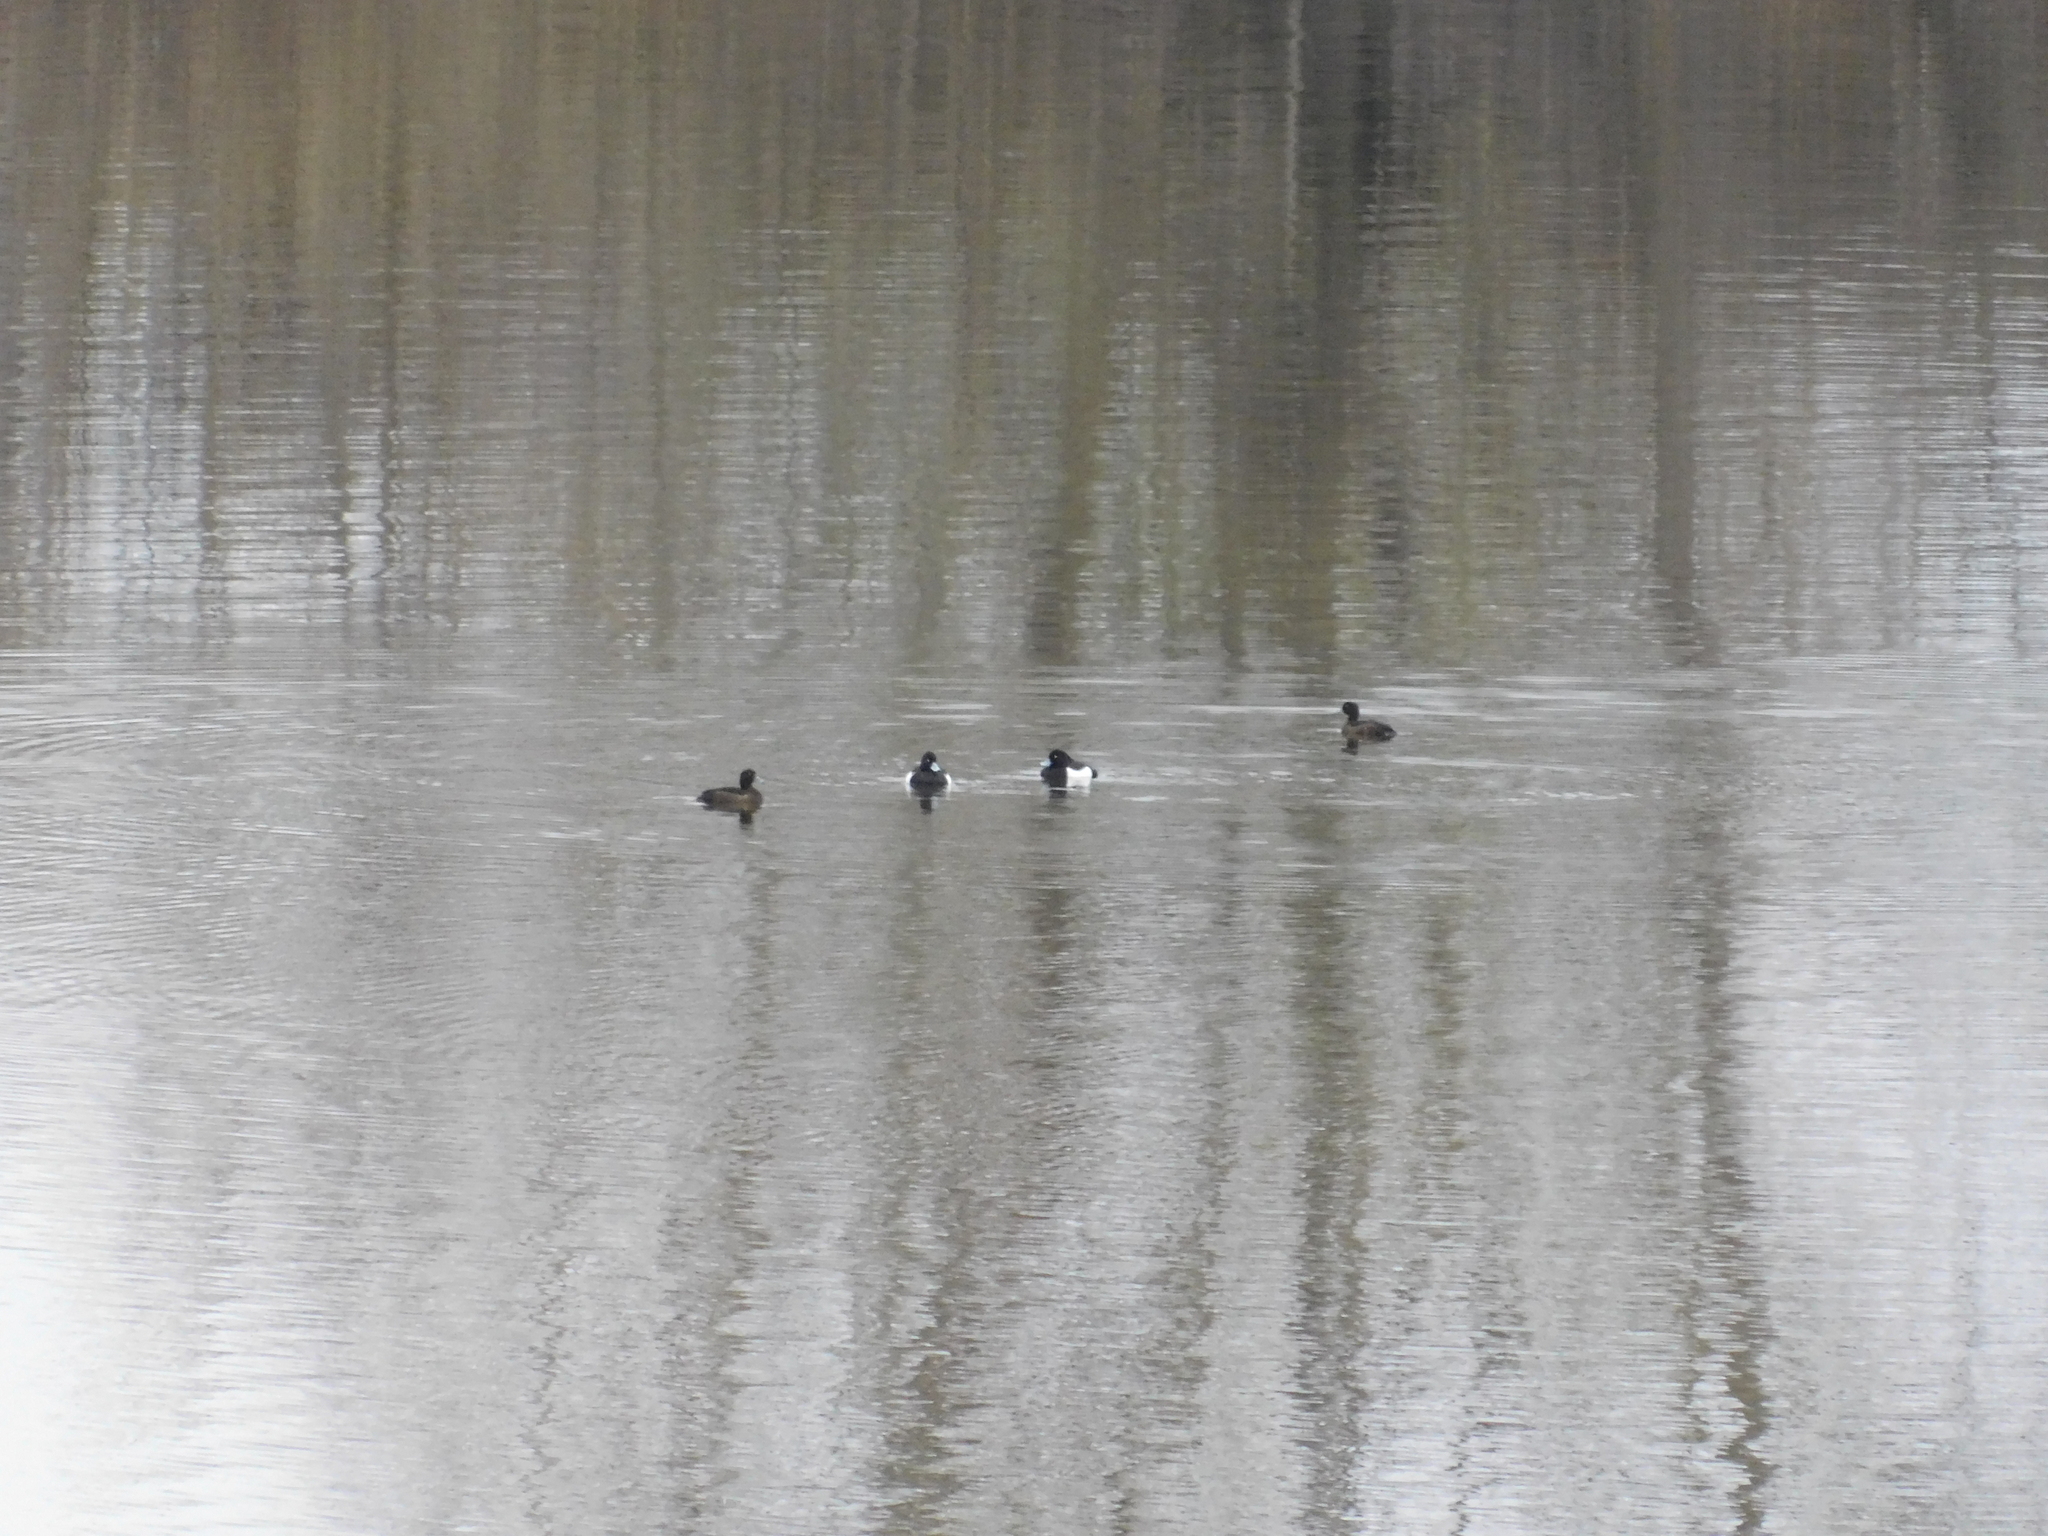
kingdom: Animalia
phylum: Chordata
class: Aves
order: Anseriformes
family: Anatidae
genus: Aythya
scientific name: Aythya fuligula
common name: Tufted duck
